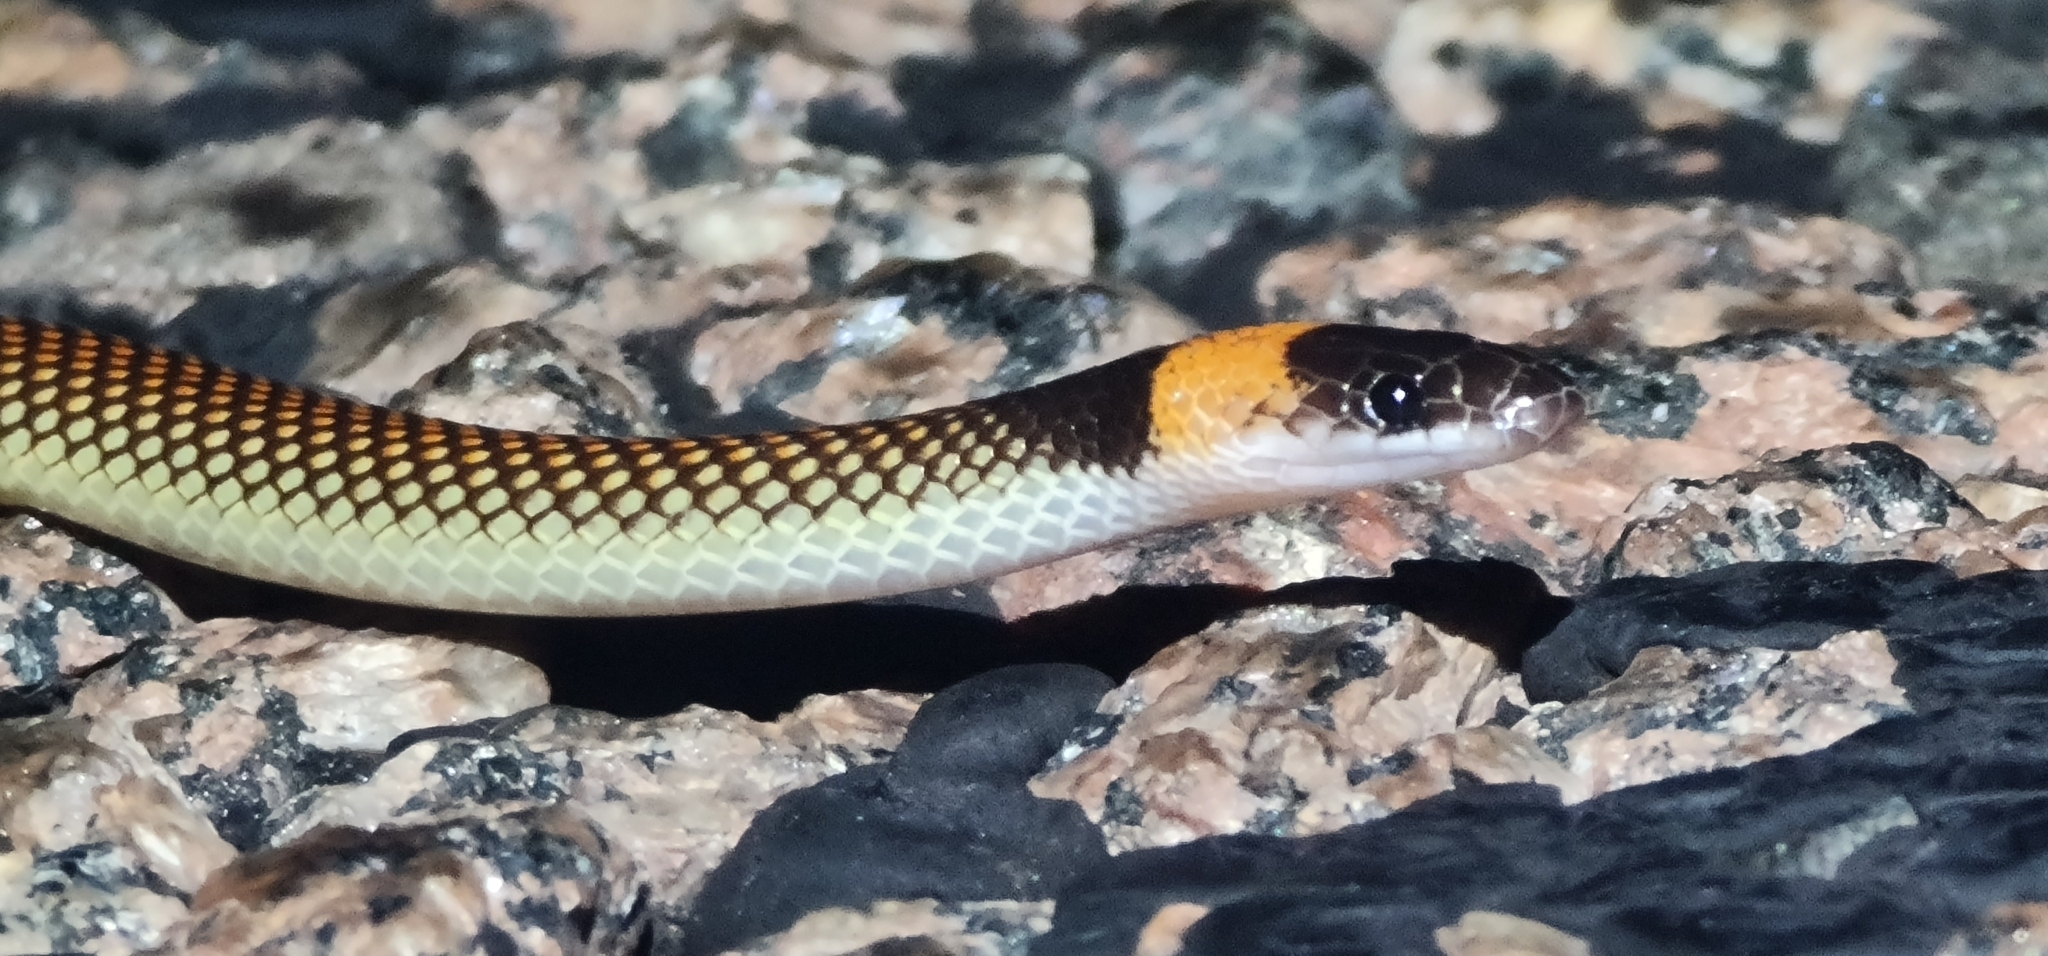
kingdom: Animalia
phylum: Chordata
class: Squamata
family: Elapidae
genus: Furina
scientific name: Furina ornata
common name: Orange-naped snake
